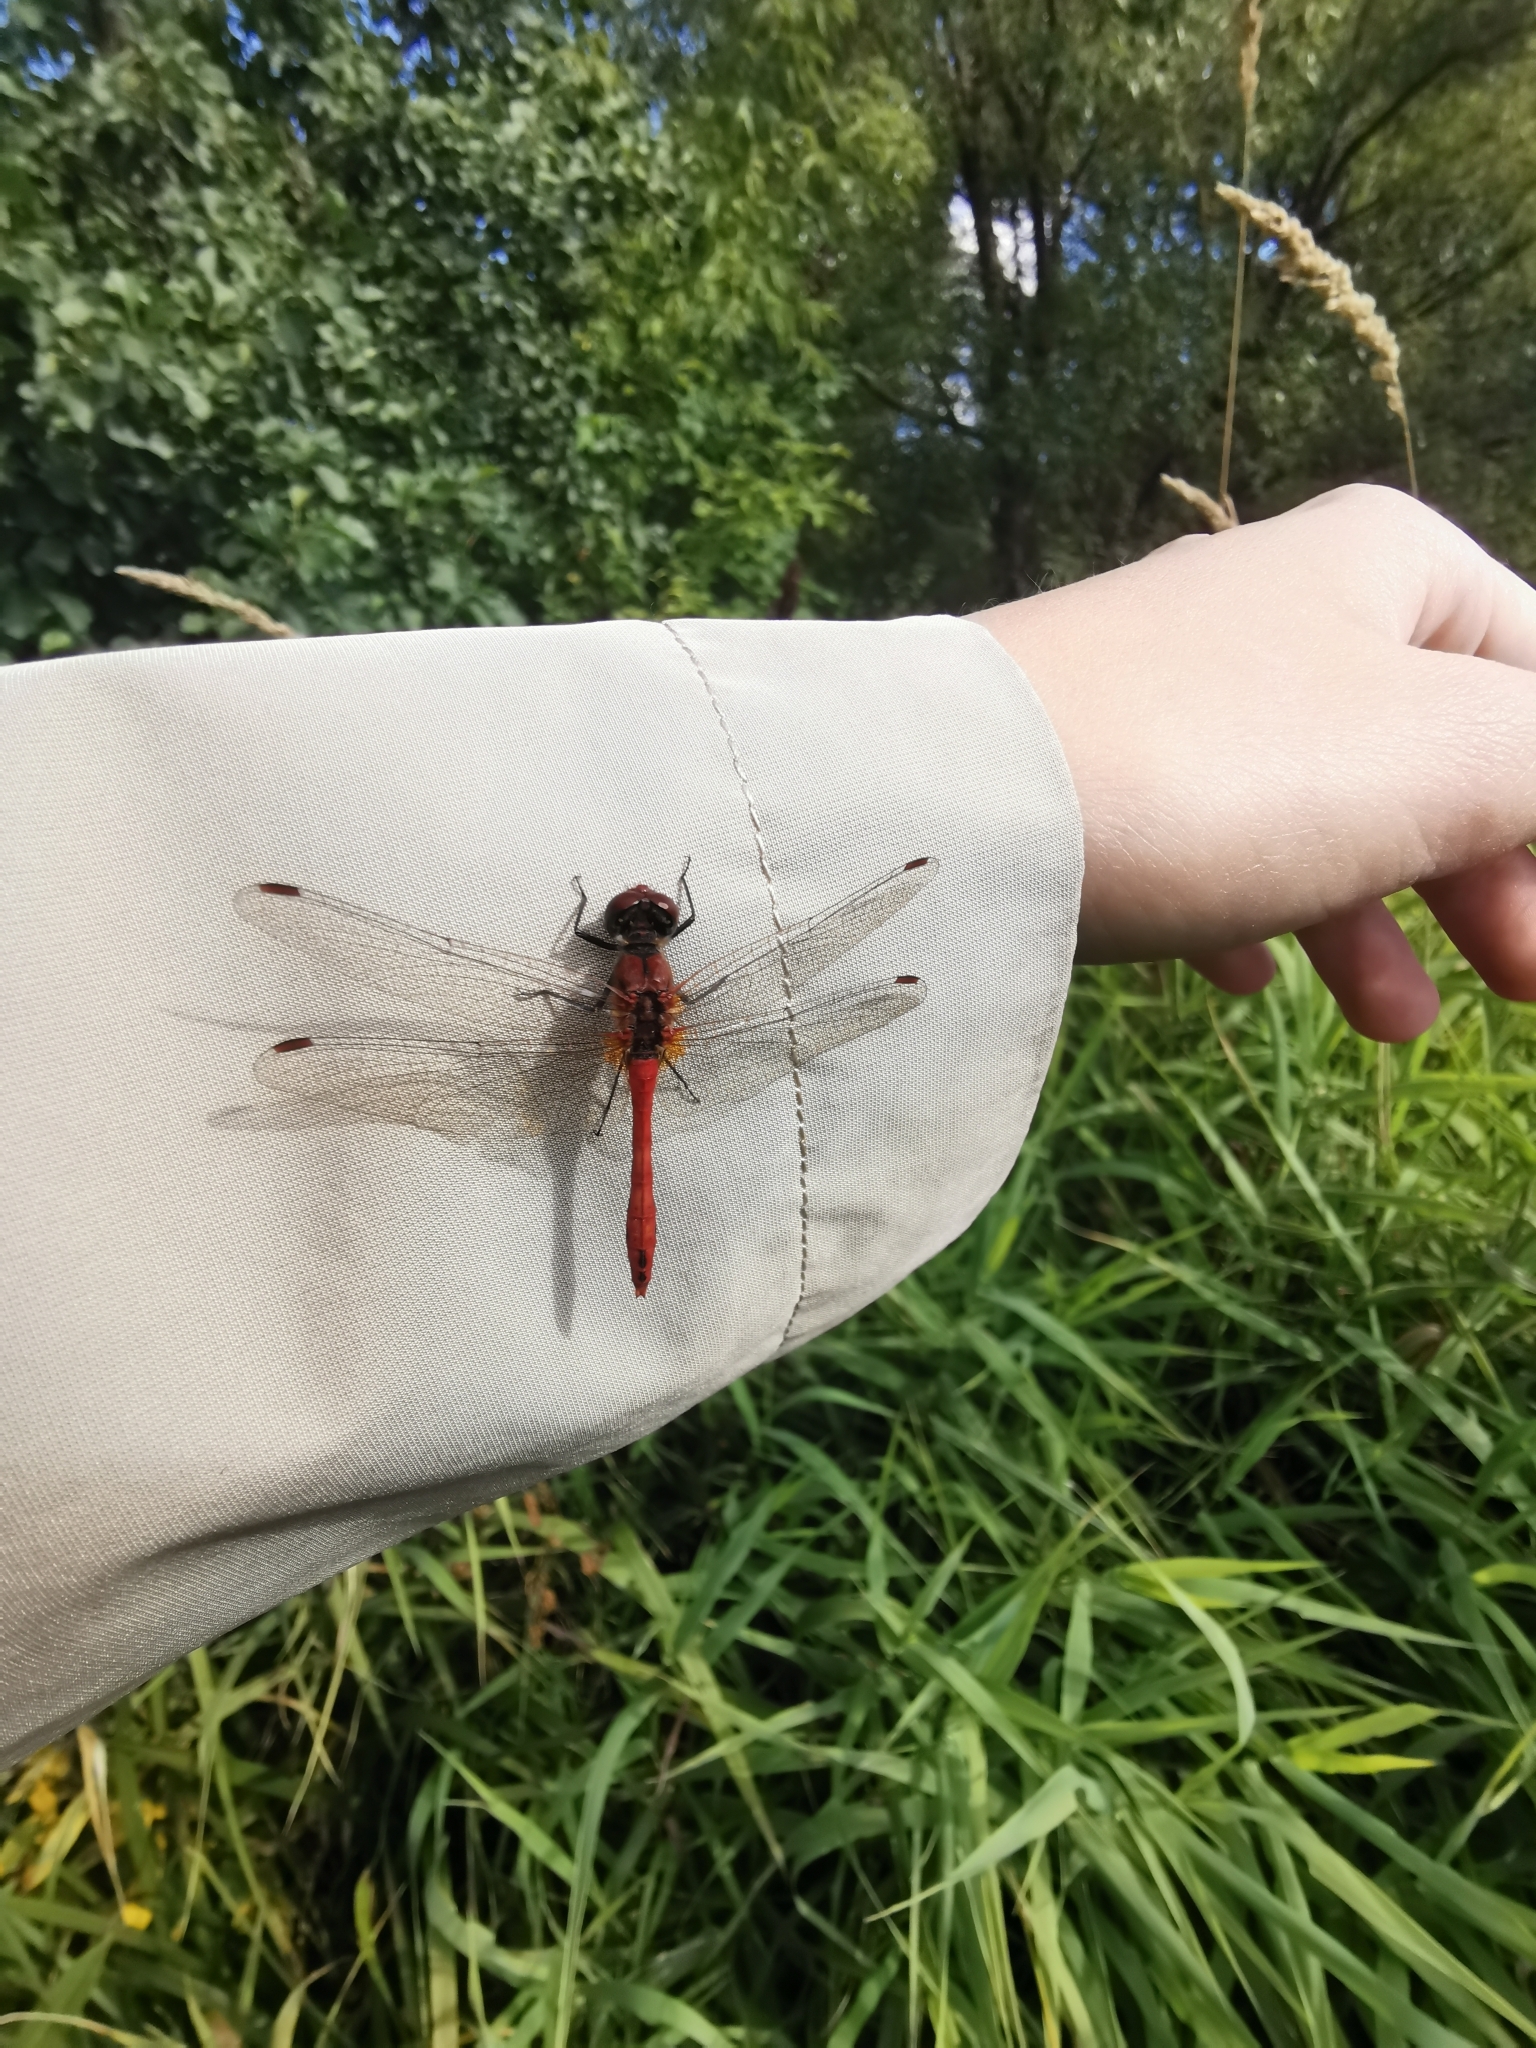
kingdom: Animalia
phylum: Arthropoda
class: Insecta
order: Odonata
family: Libellulidae
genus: Sympetrum
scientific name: Sympetrum sanguineum
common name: Ruddy darter
